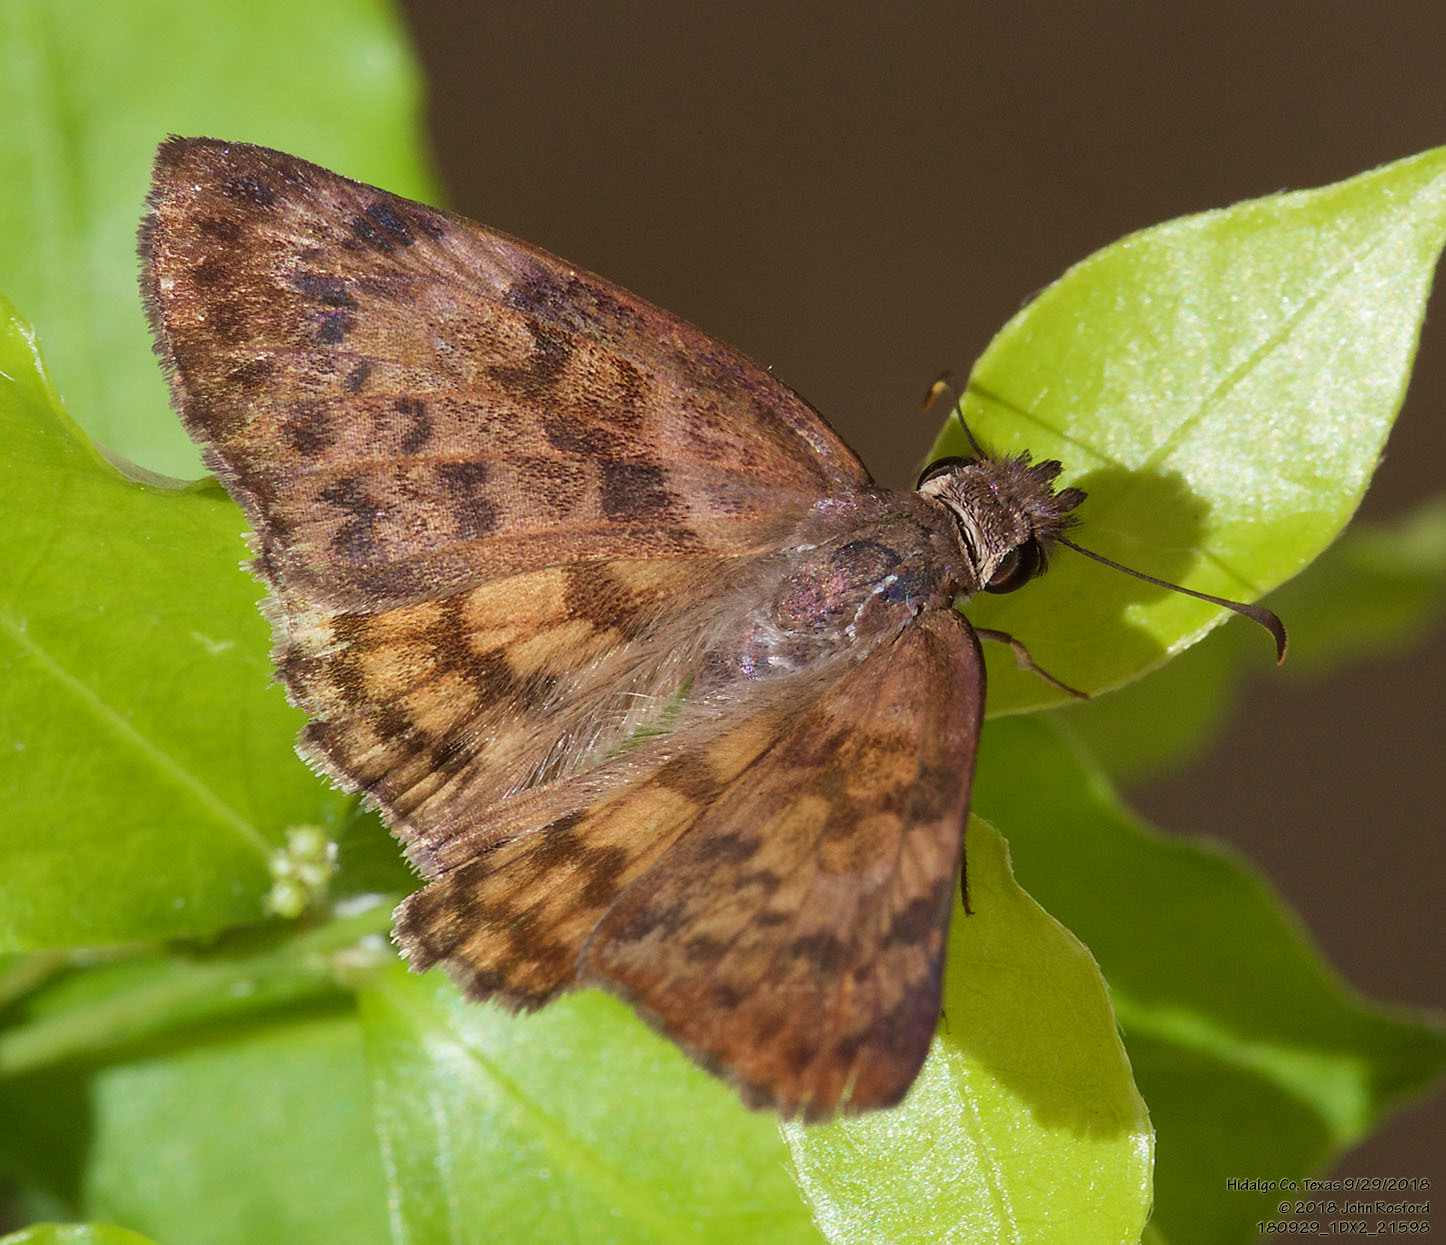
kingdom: Animalia
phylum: Arthropoda
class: Insecta
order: Lepidoptera
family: Hesperiidae
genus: Timochares
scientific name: Timochares ruptifasciata
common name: Brown-banded skipper
